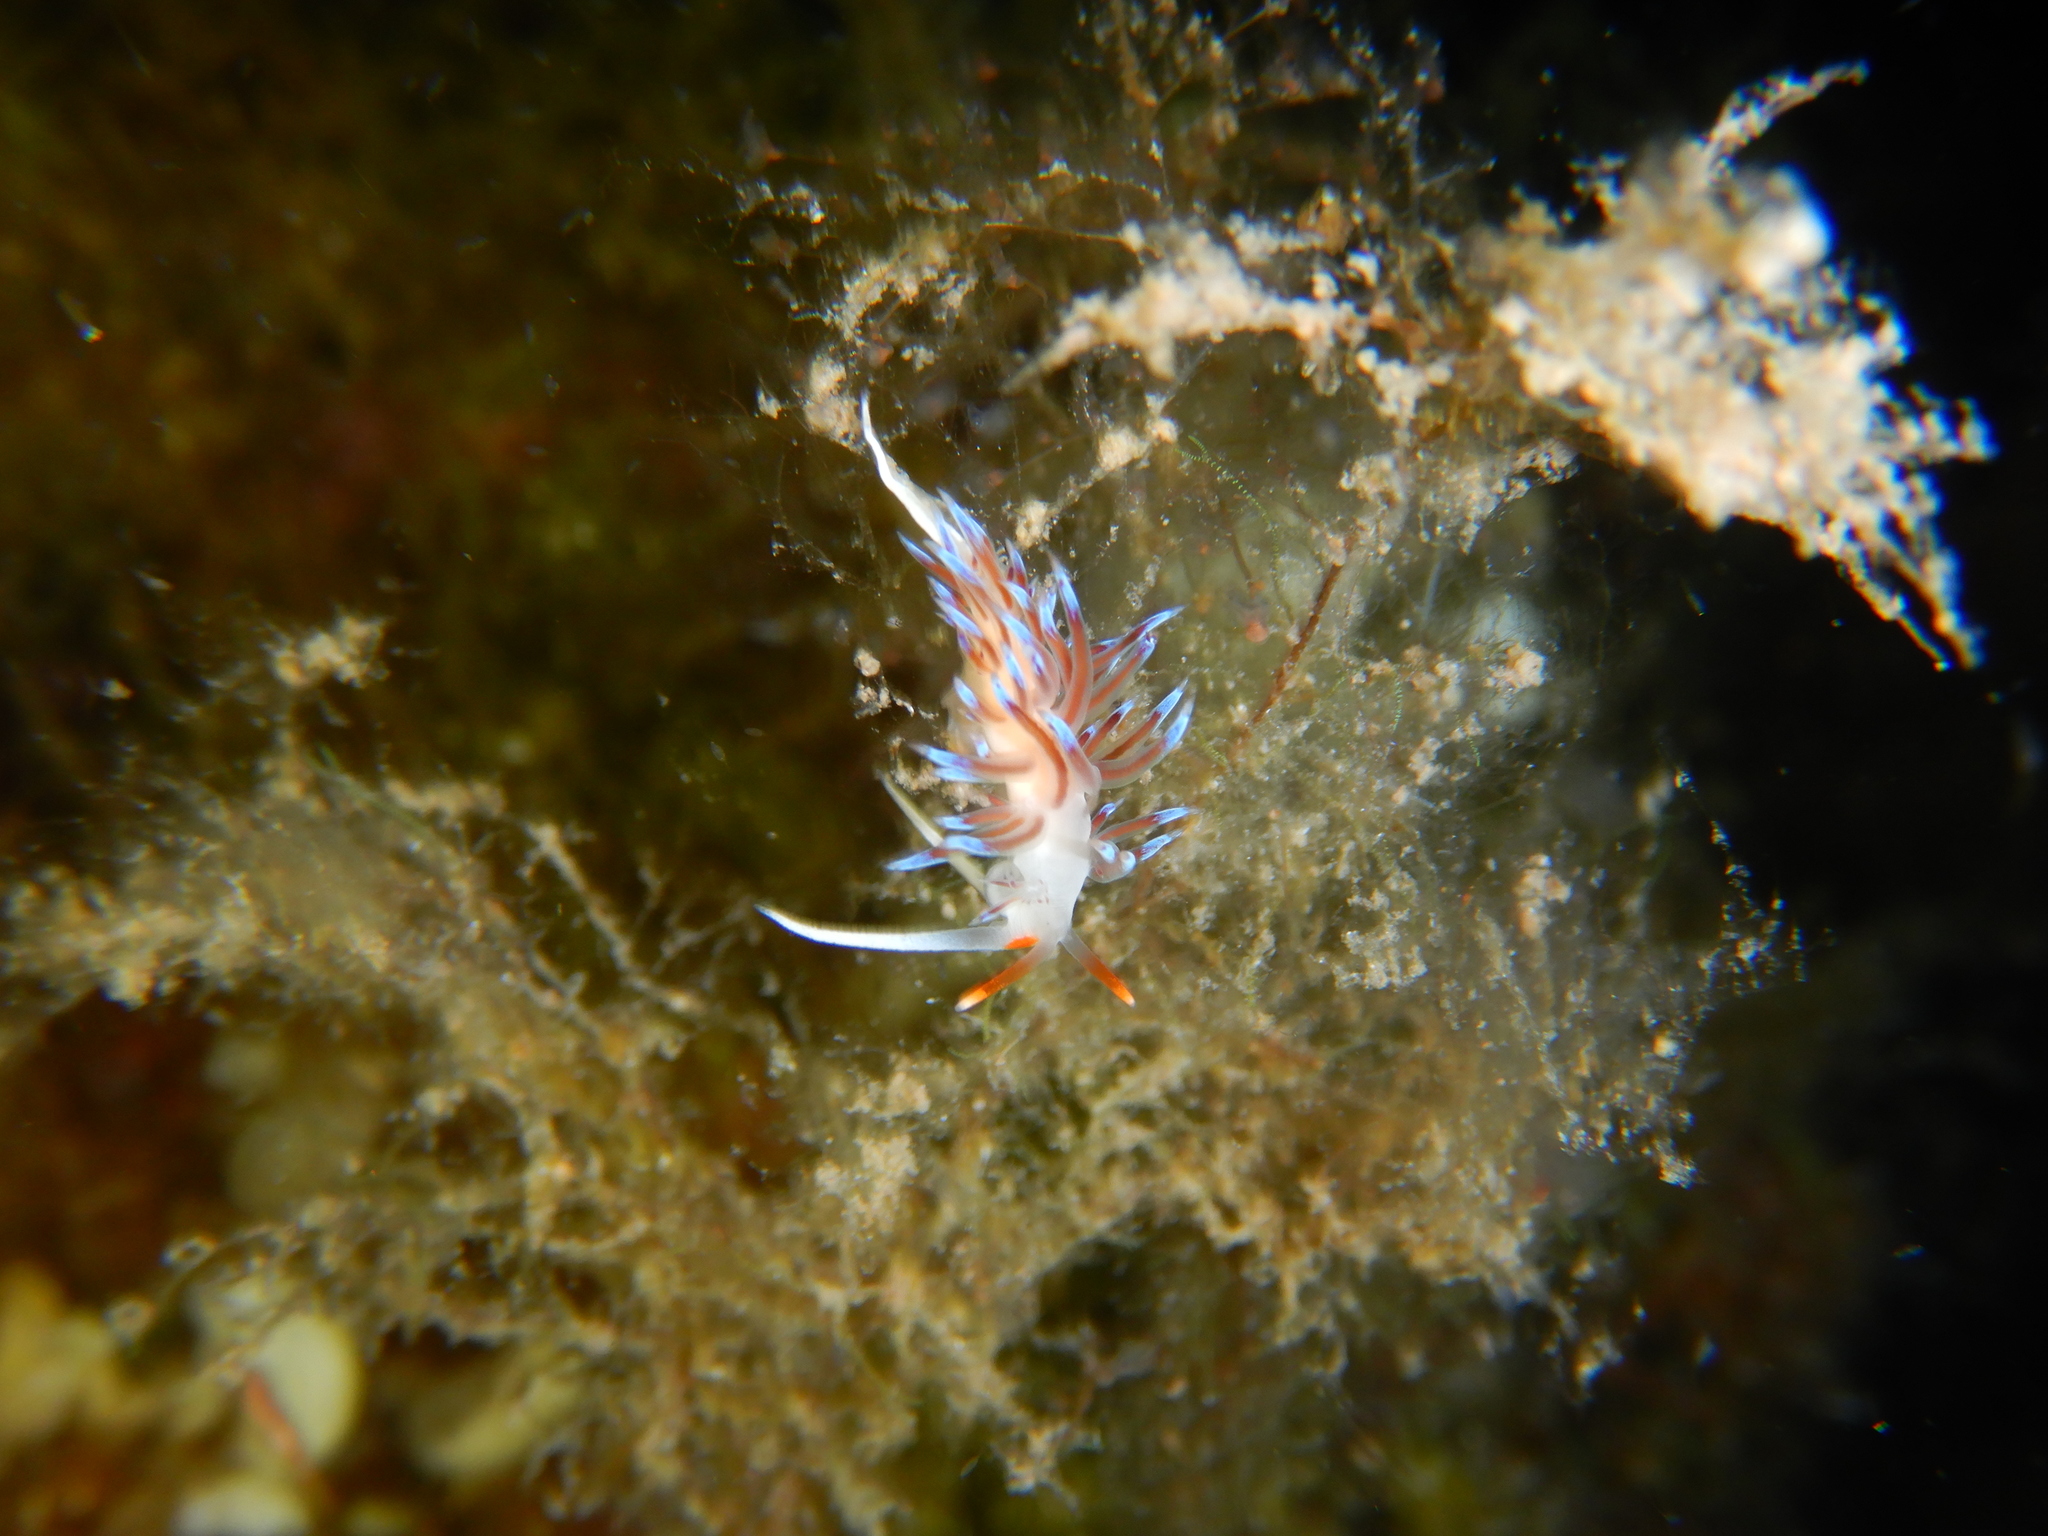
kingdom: Animalia
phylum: Mollusca
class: Gastropoda
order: Nudibranchia
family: Facelinidae
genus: Cratena
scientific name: Cratena peregrina
